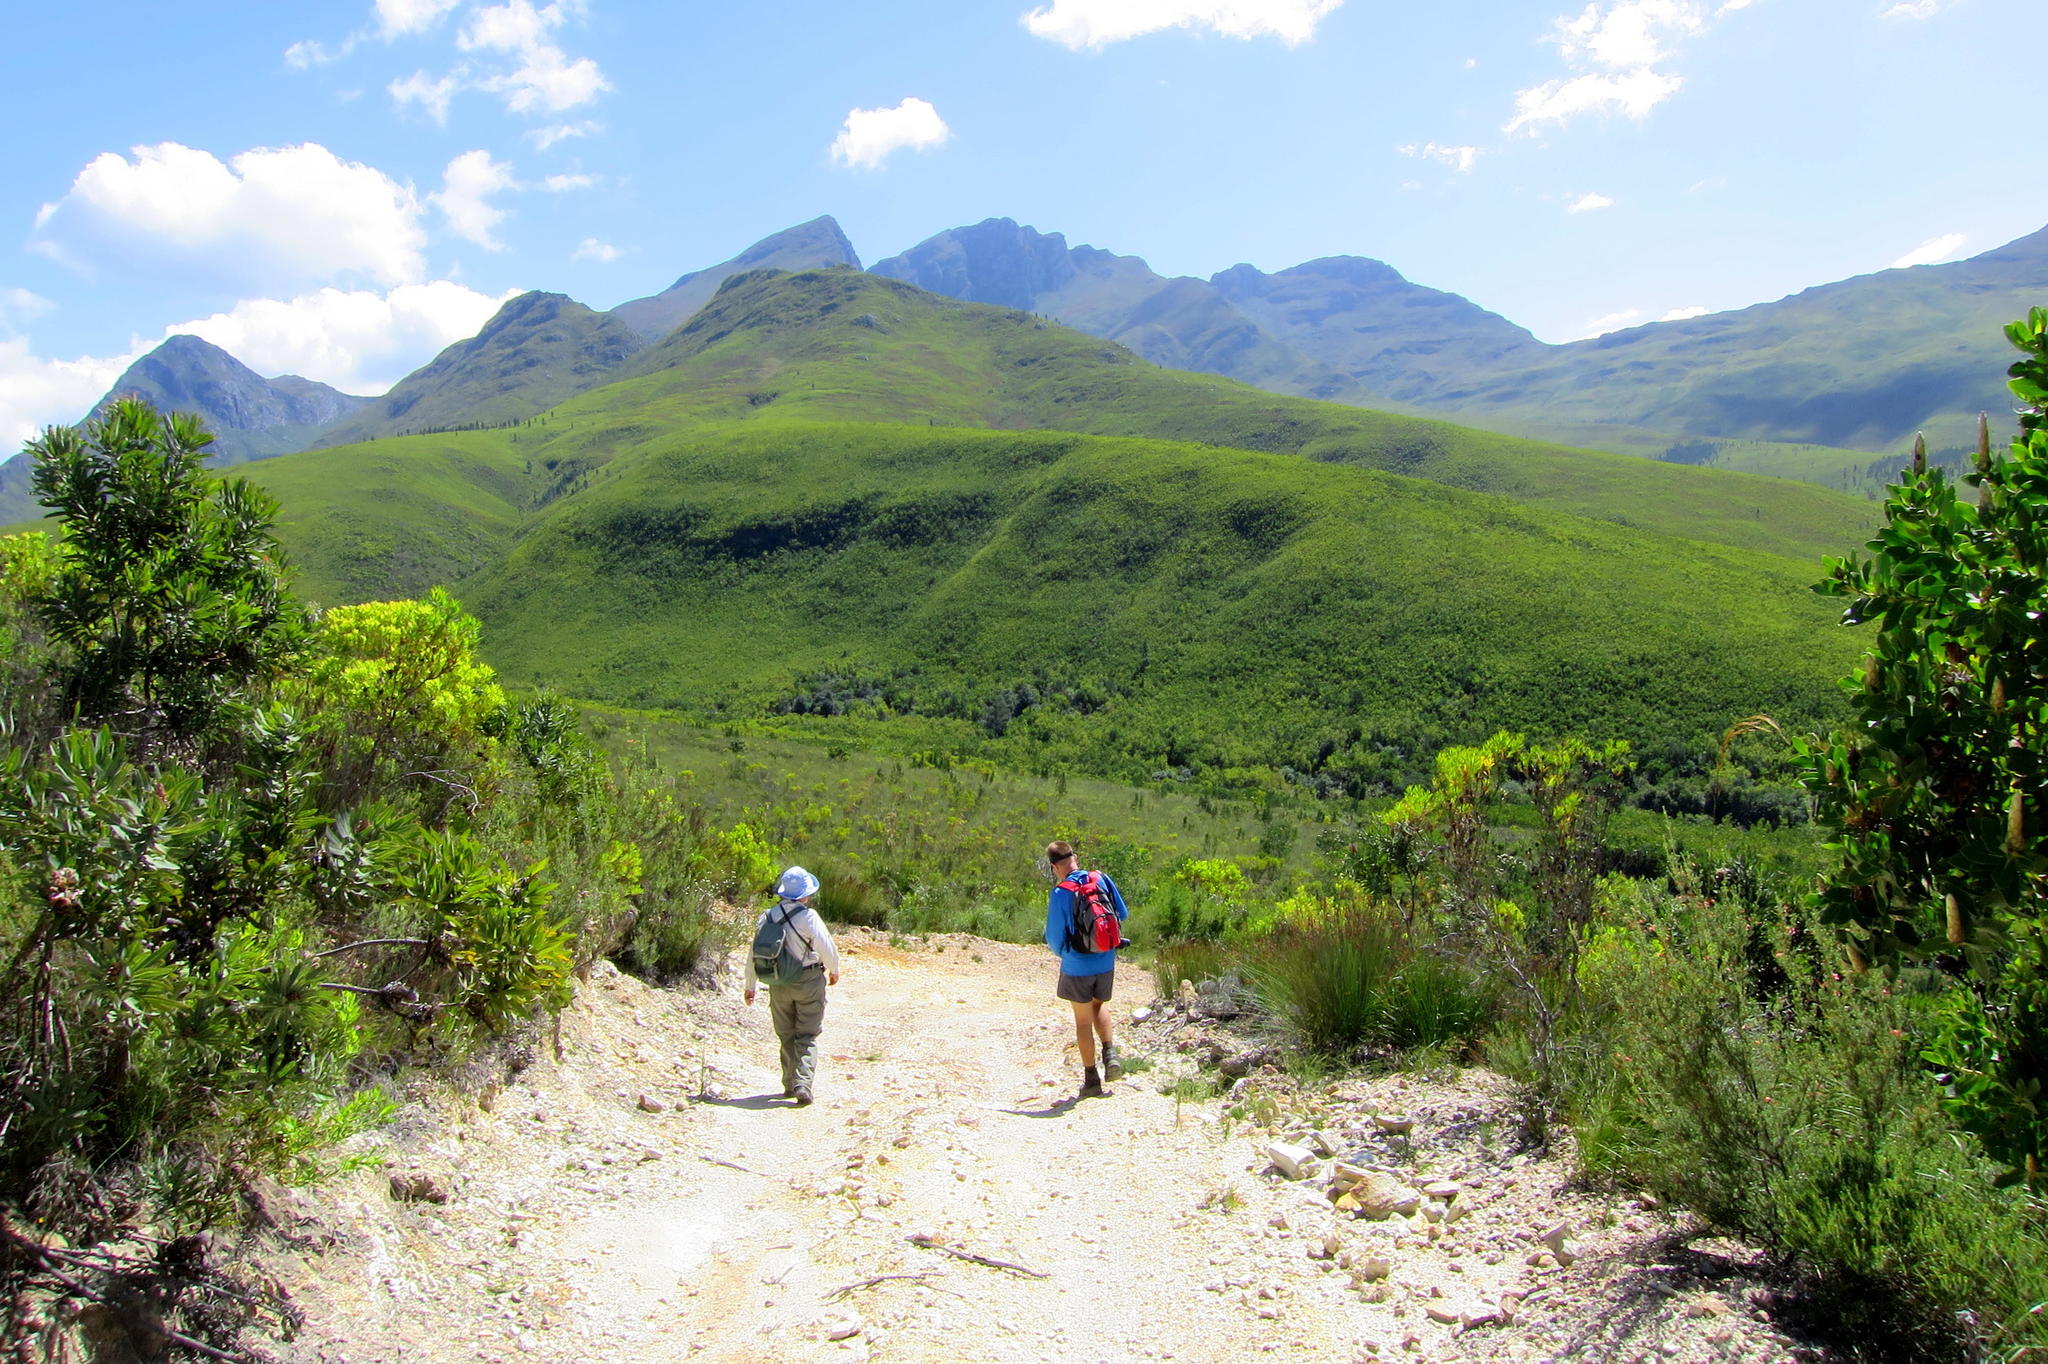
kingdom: Plantae
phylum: Tracheophyta
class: Magnoliopsida
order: Proteales
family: Proteaceae
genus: Leucadendron
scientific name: Leucadendron salignum
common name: Common sunshine conebush
